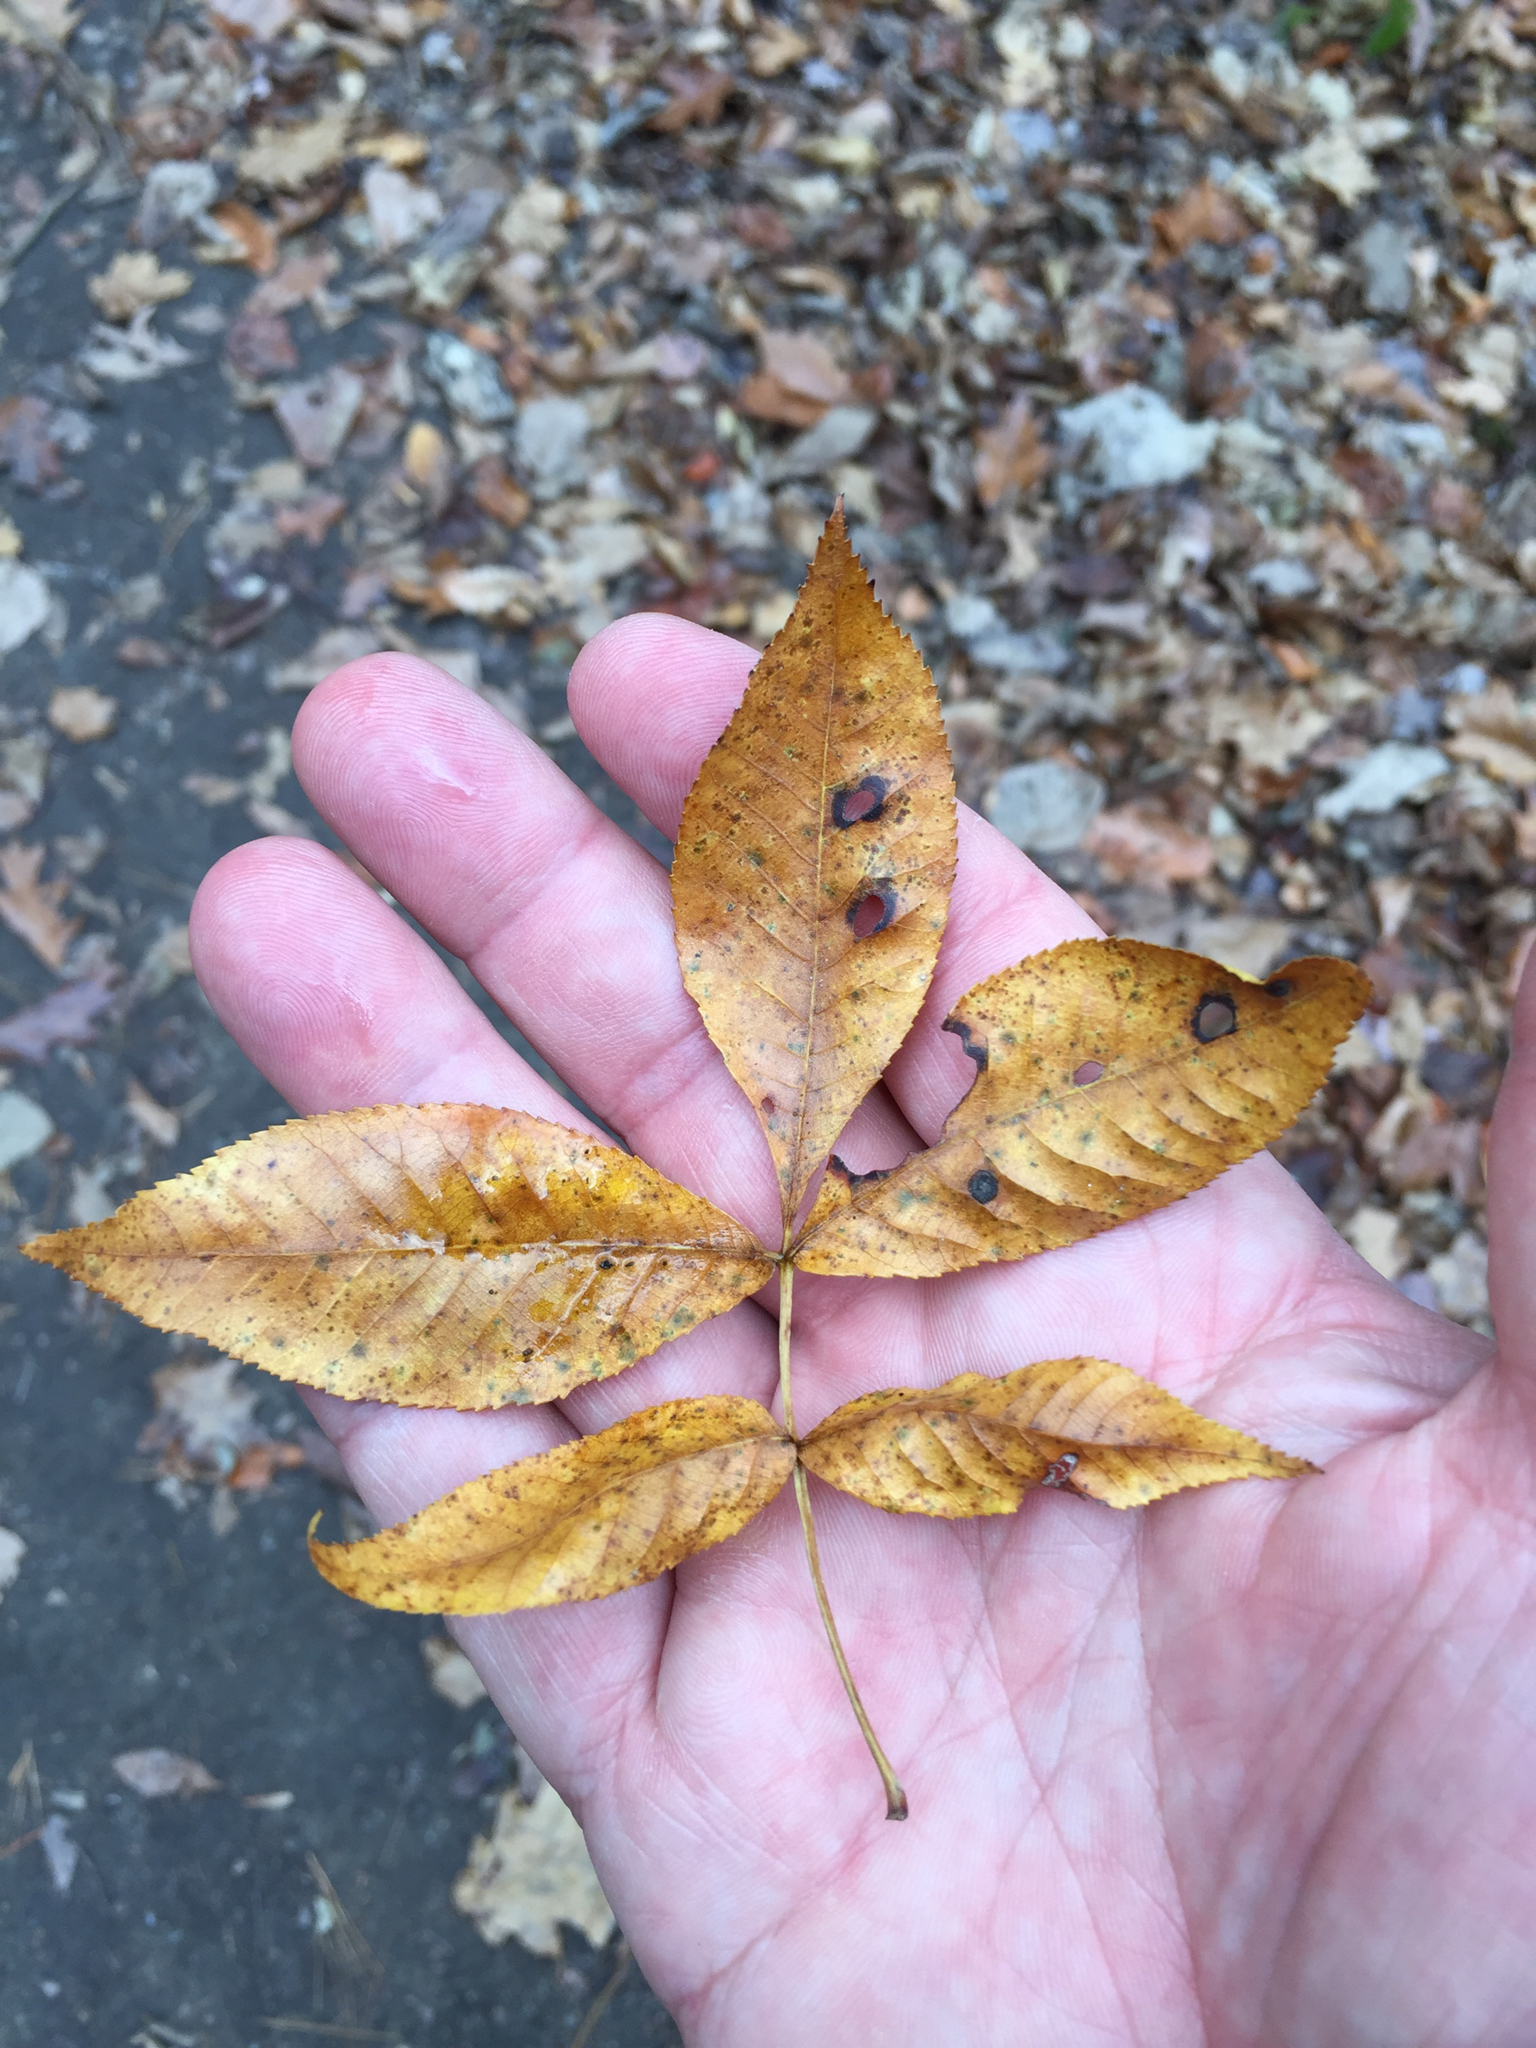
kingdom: Plantae
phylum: Tracheophyta
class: Magnoliopsida
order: Lamiales
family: Oleaceae
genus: Fraxinus
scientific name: Fraxinus pennsylvanica
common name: Green ash
